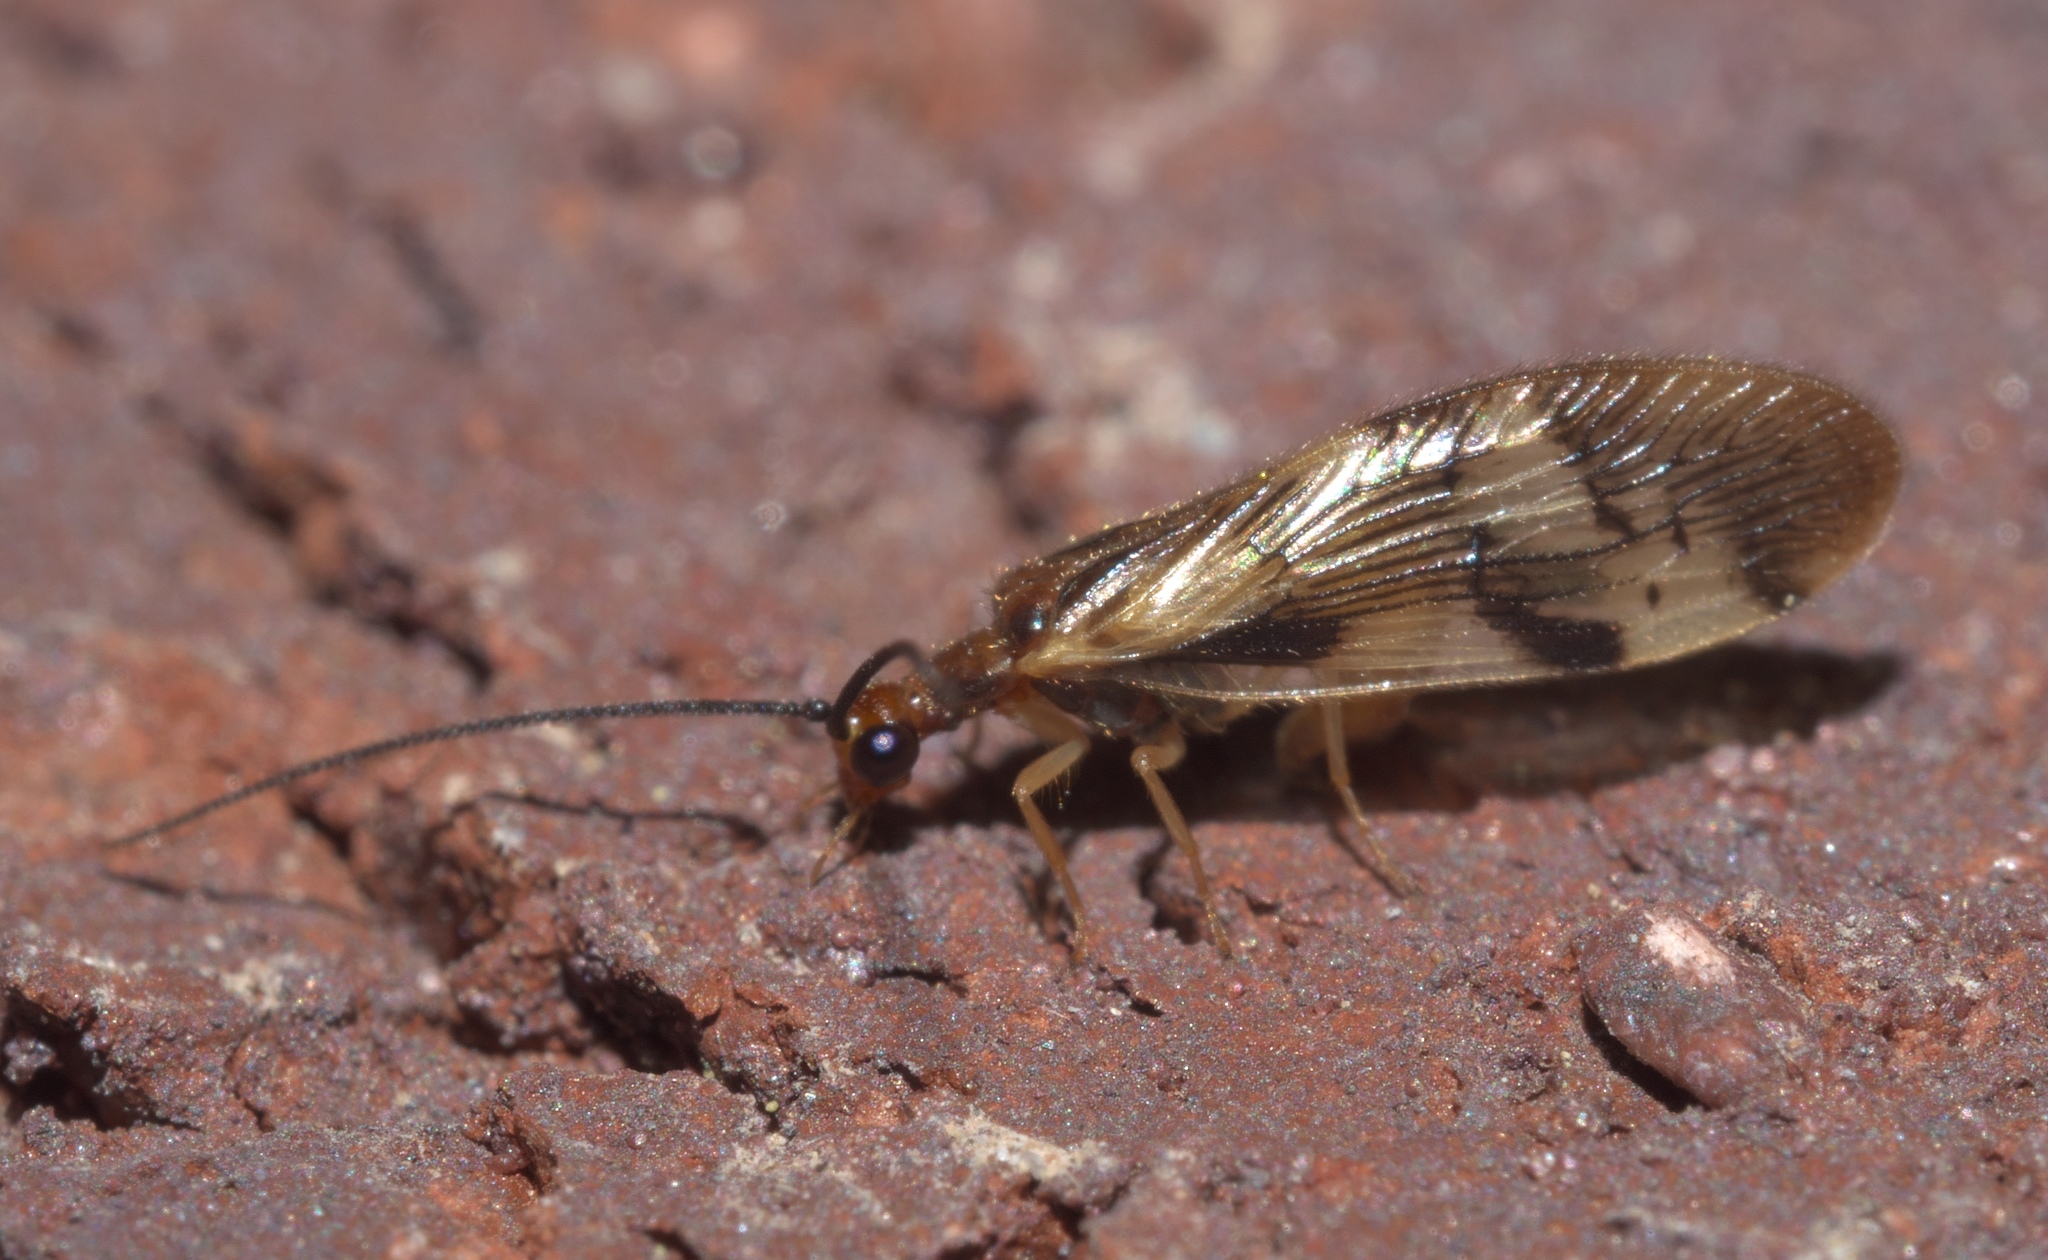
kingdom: Animalia
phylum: Arthropoda
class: Insecta
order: Neuroptera
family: Sisyridae
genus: Climacia
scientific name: Climacia areolaris
